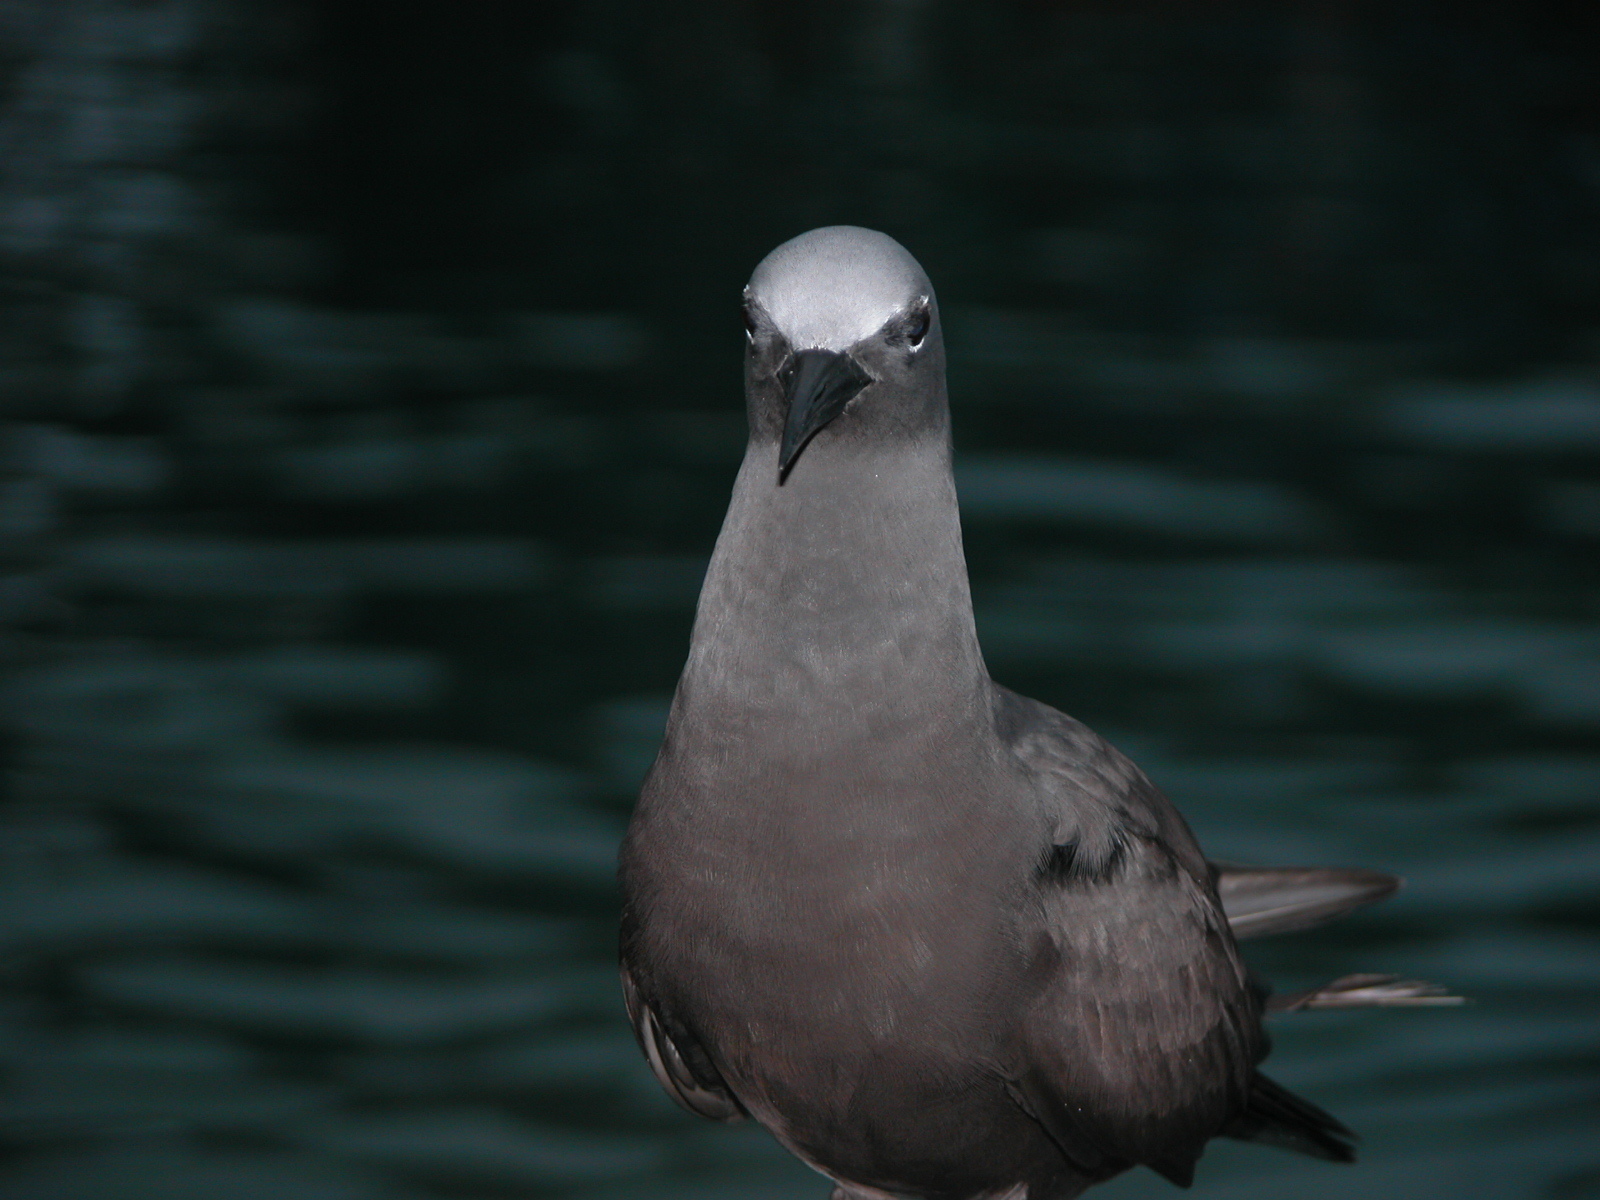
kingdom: Animalia
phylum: Chordata
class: Aves
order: Charadriiformes
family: Laridae
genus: Anous
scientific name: Anous stolidus
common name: Brown noddy
